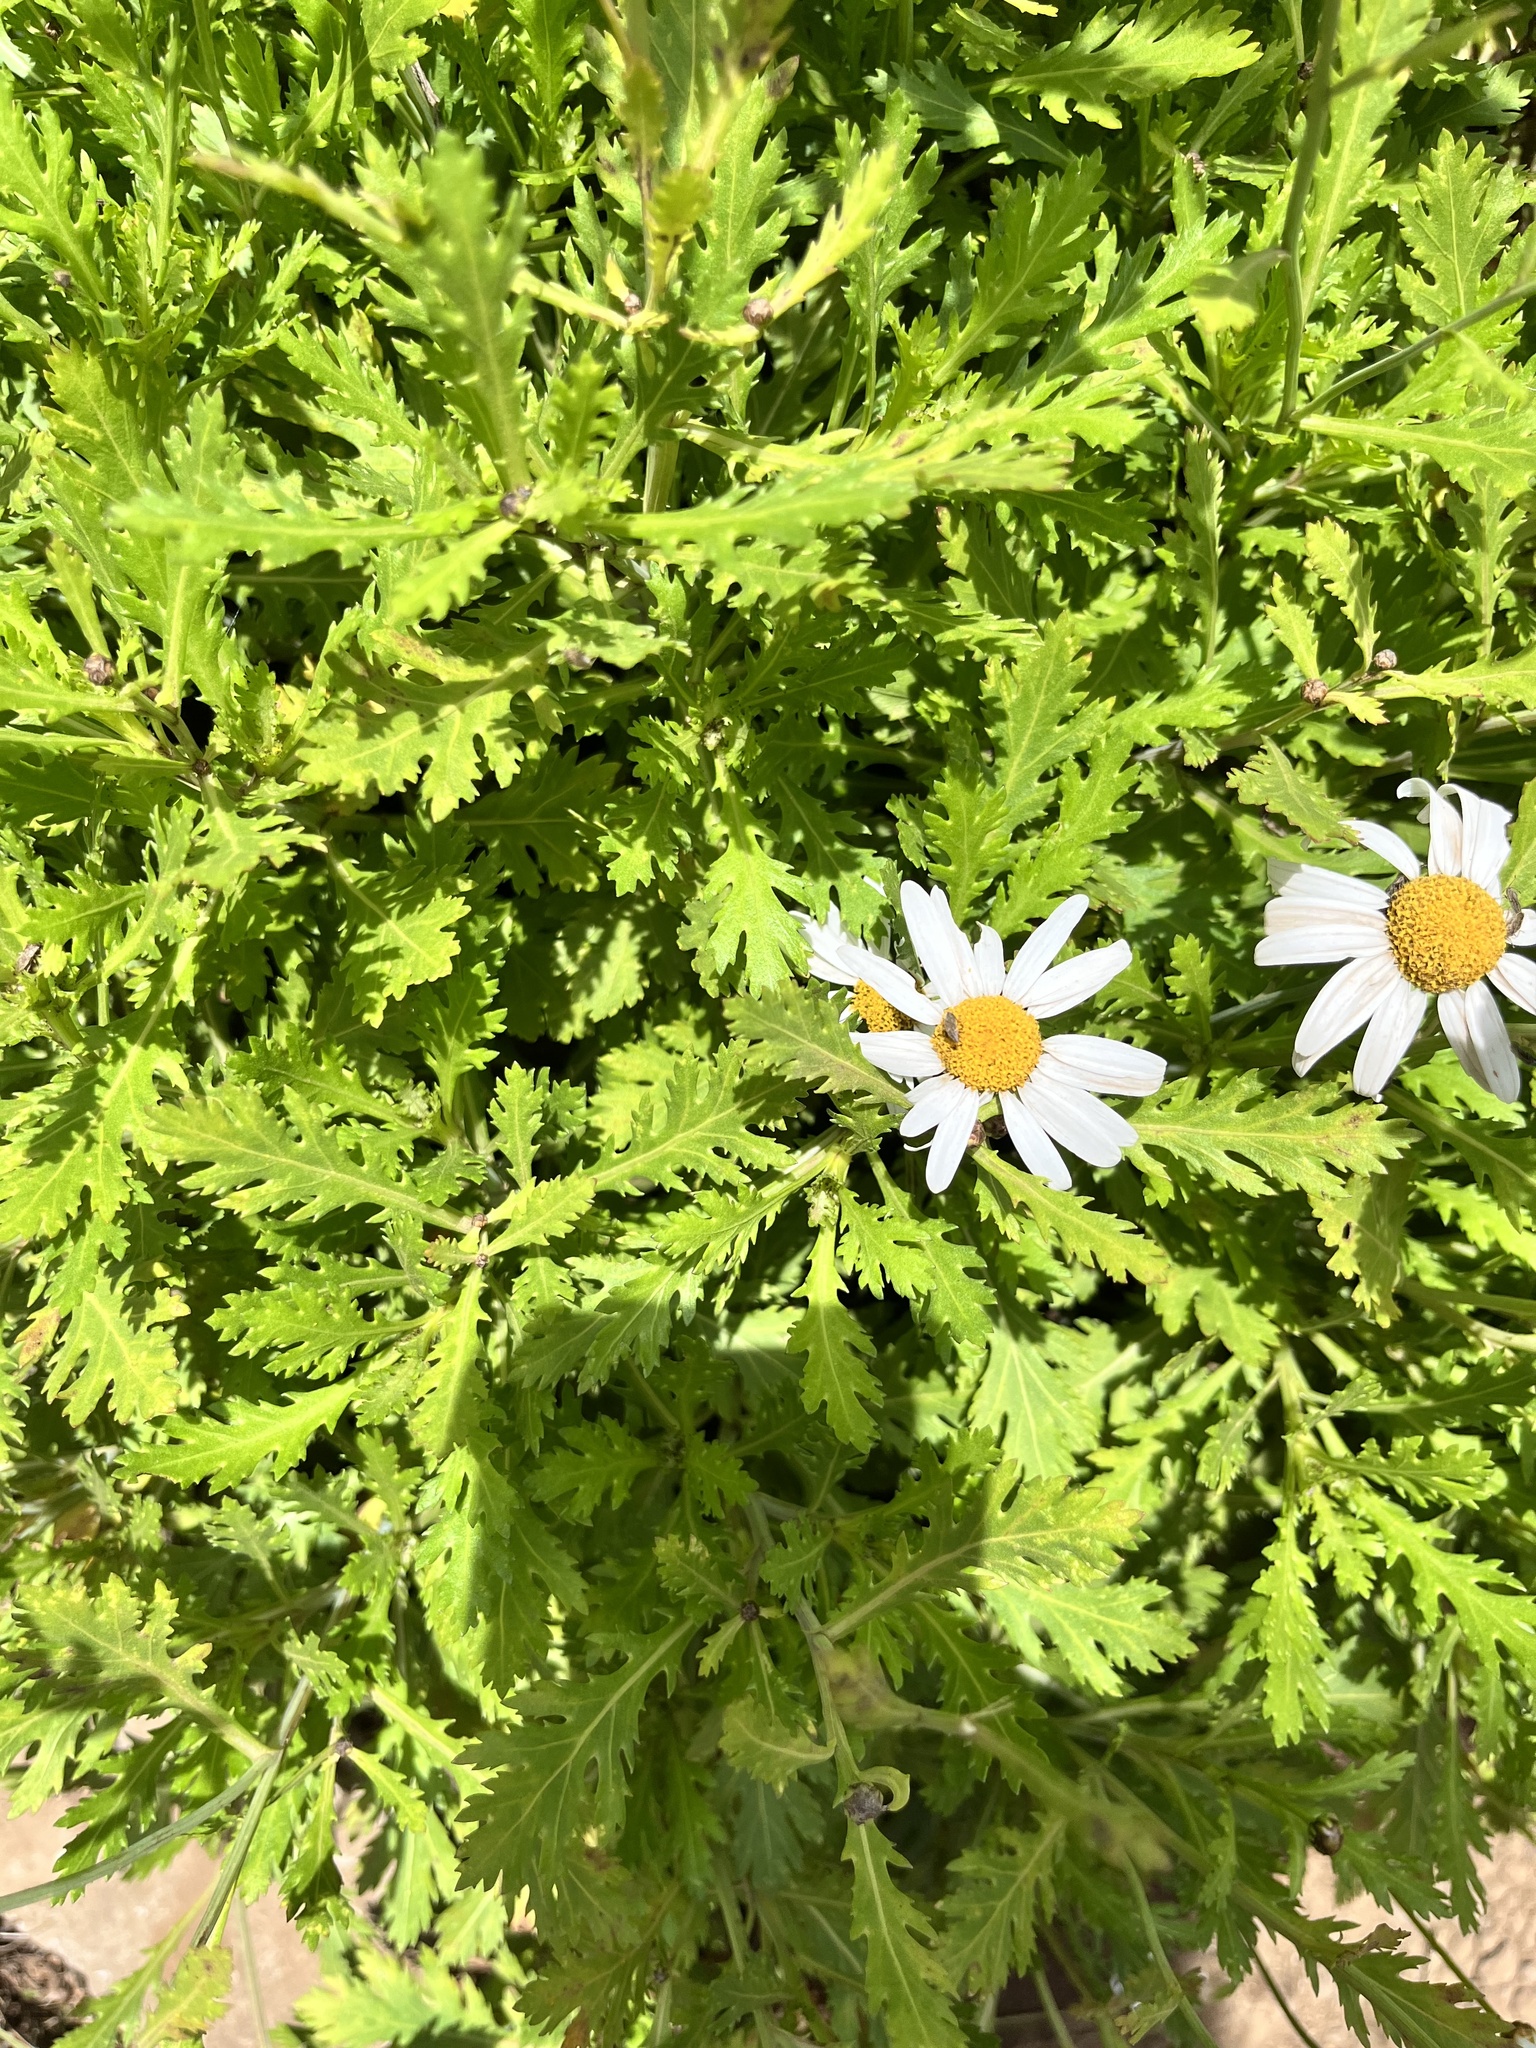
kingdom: Plantae
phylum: Tracheophyta
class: Magnoliopsida
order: Asterales
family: Asteraceae
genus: Argyranthemum
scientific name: Argyranthemum pinnatifidum
